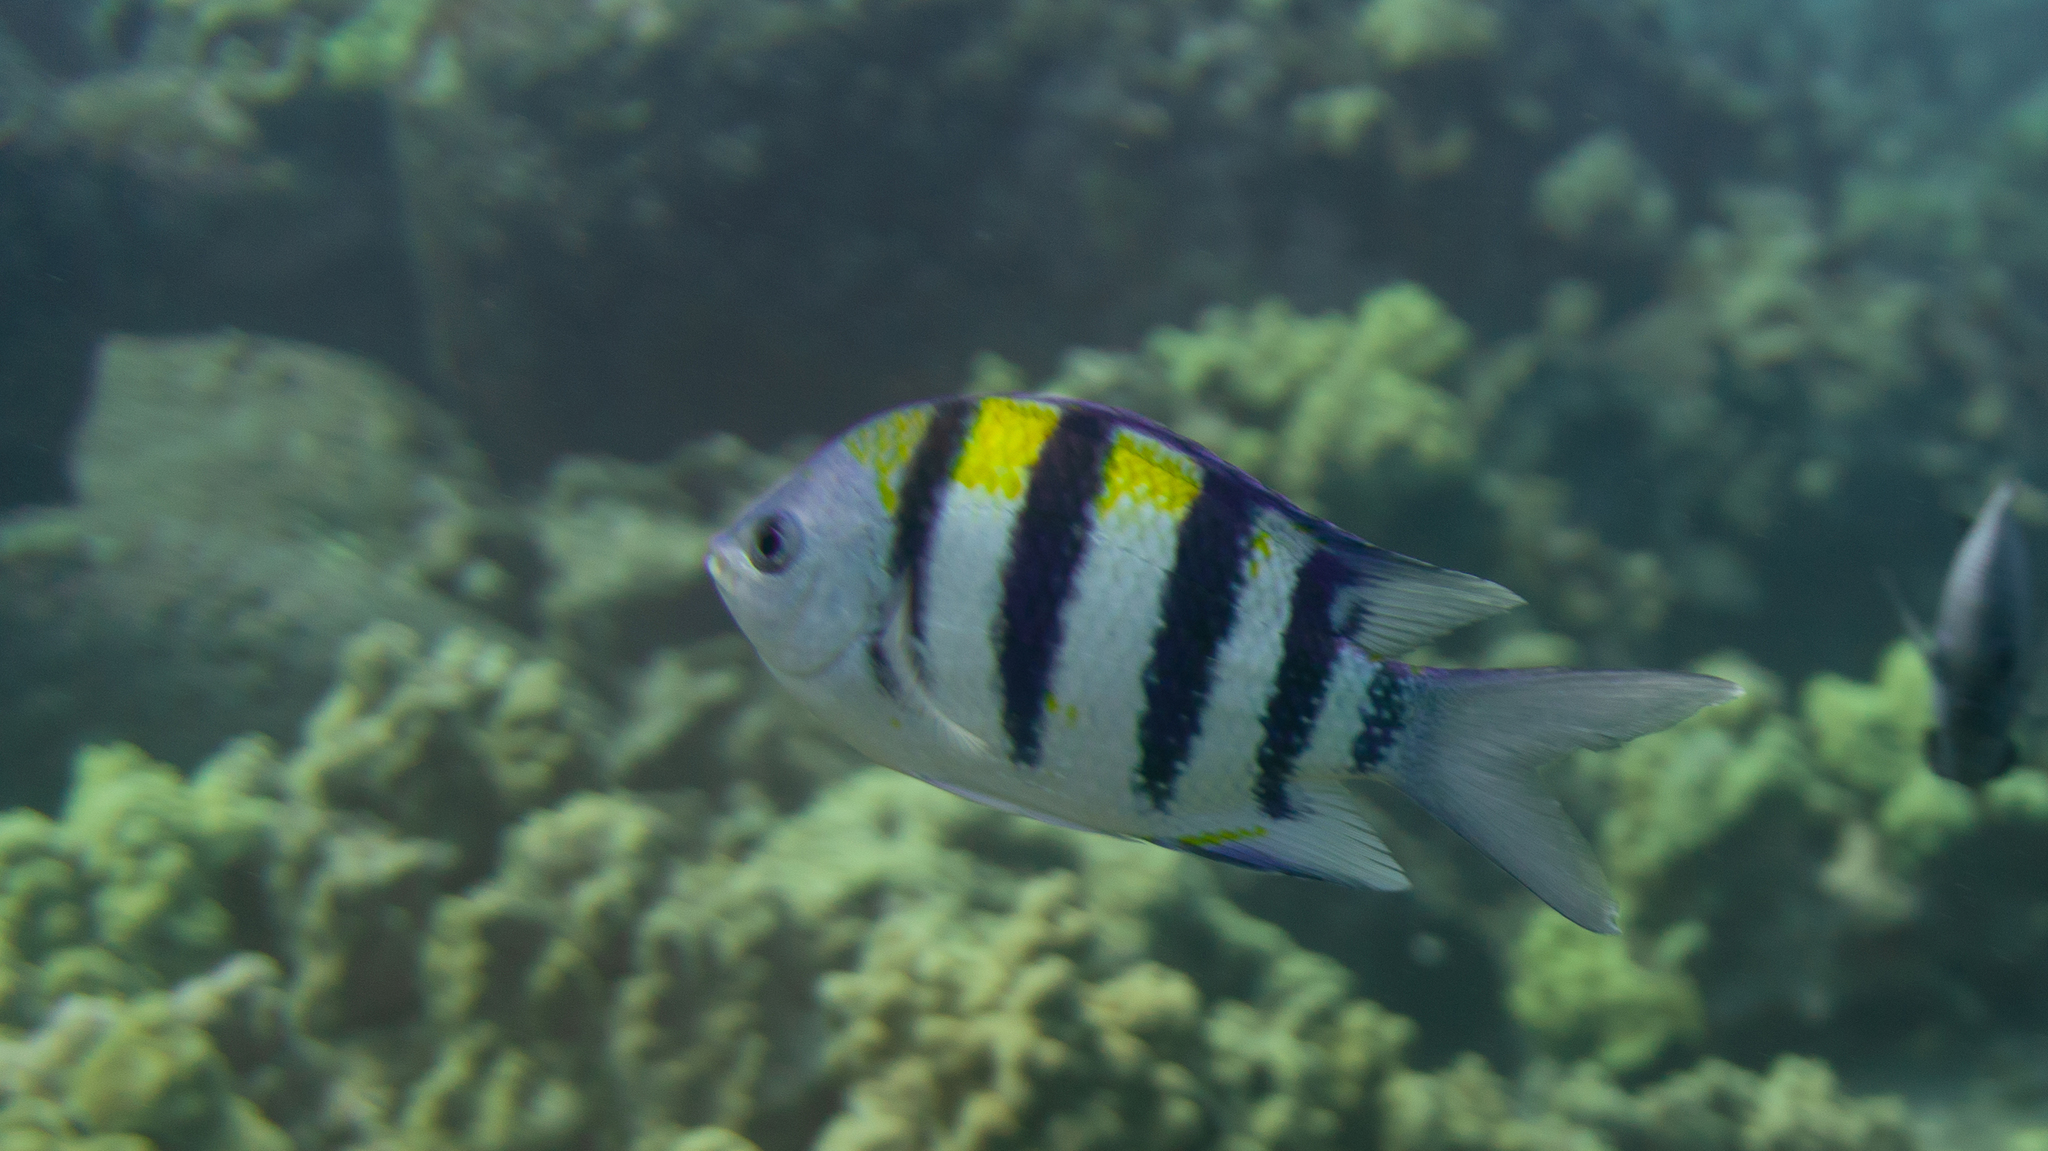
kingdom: Animalia
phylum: Chordata
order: Perciformes
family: Pomacentridae
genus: Abudefduf
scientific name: Abudefduf vaigiensis
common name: Indo-pacific sergeant
